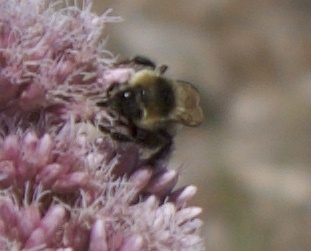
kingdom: Animalia
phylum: Arthropoda
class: Insecta
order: Hymenoptera
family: Apidae
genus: Bombus
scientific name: Bombus rufocinctus
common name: Red-belted bumble bee
